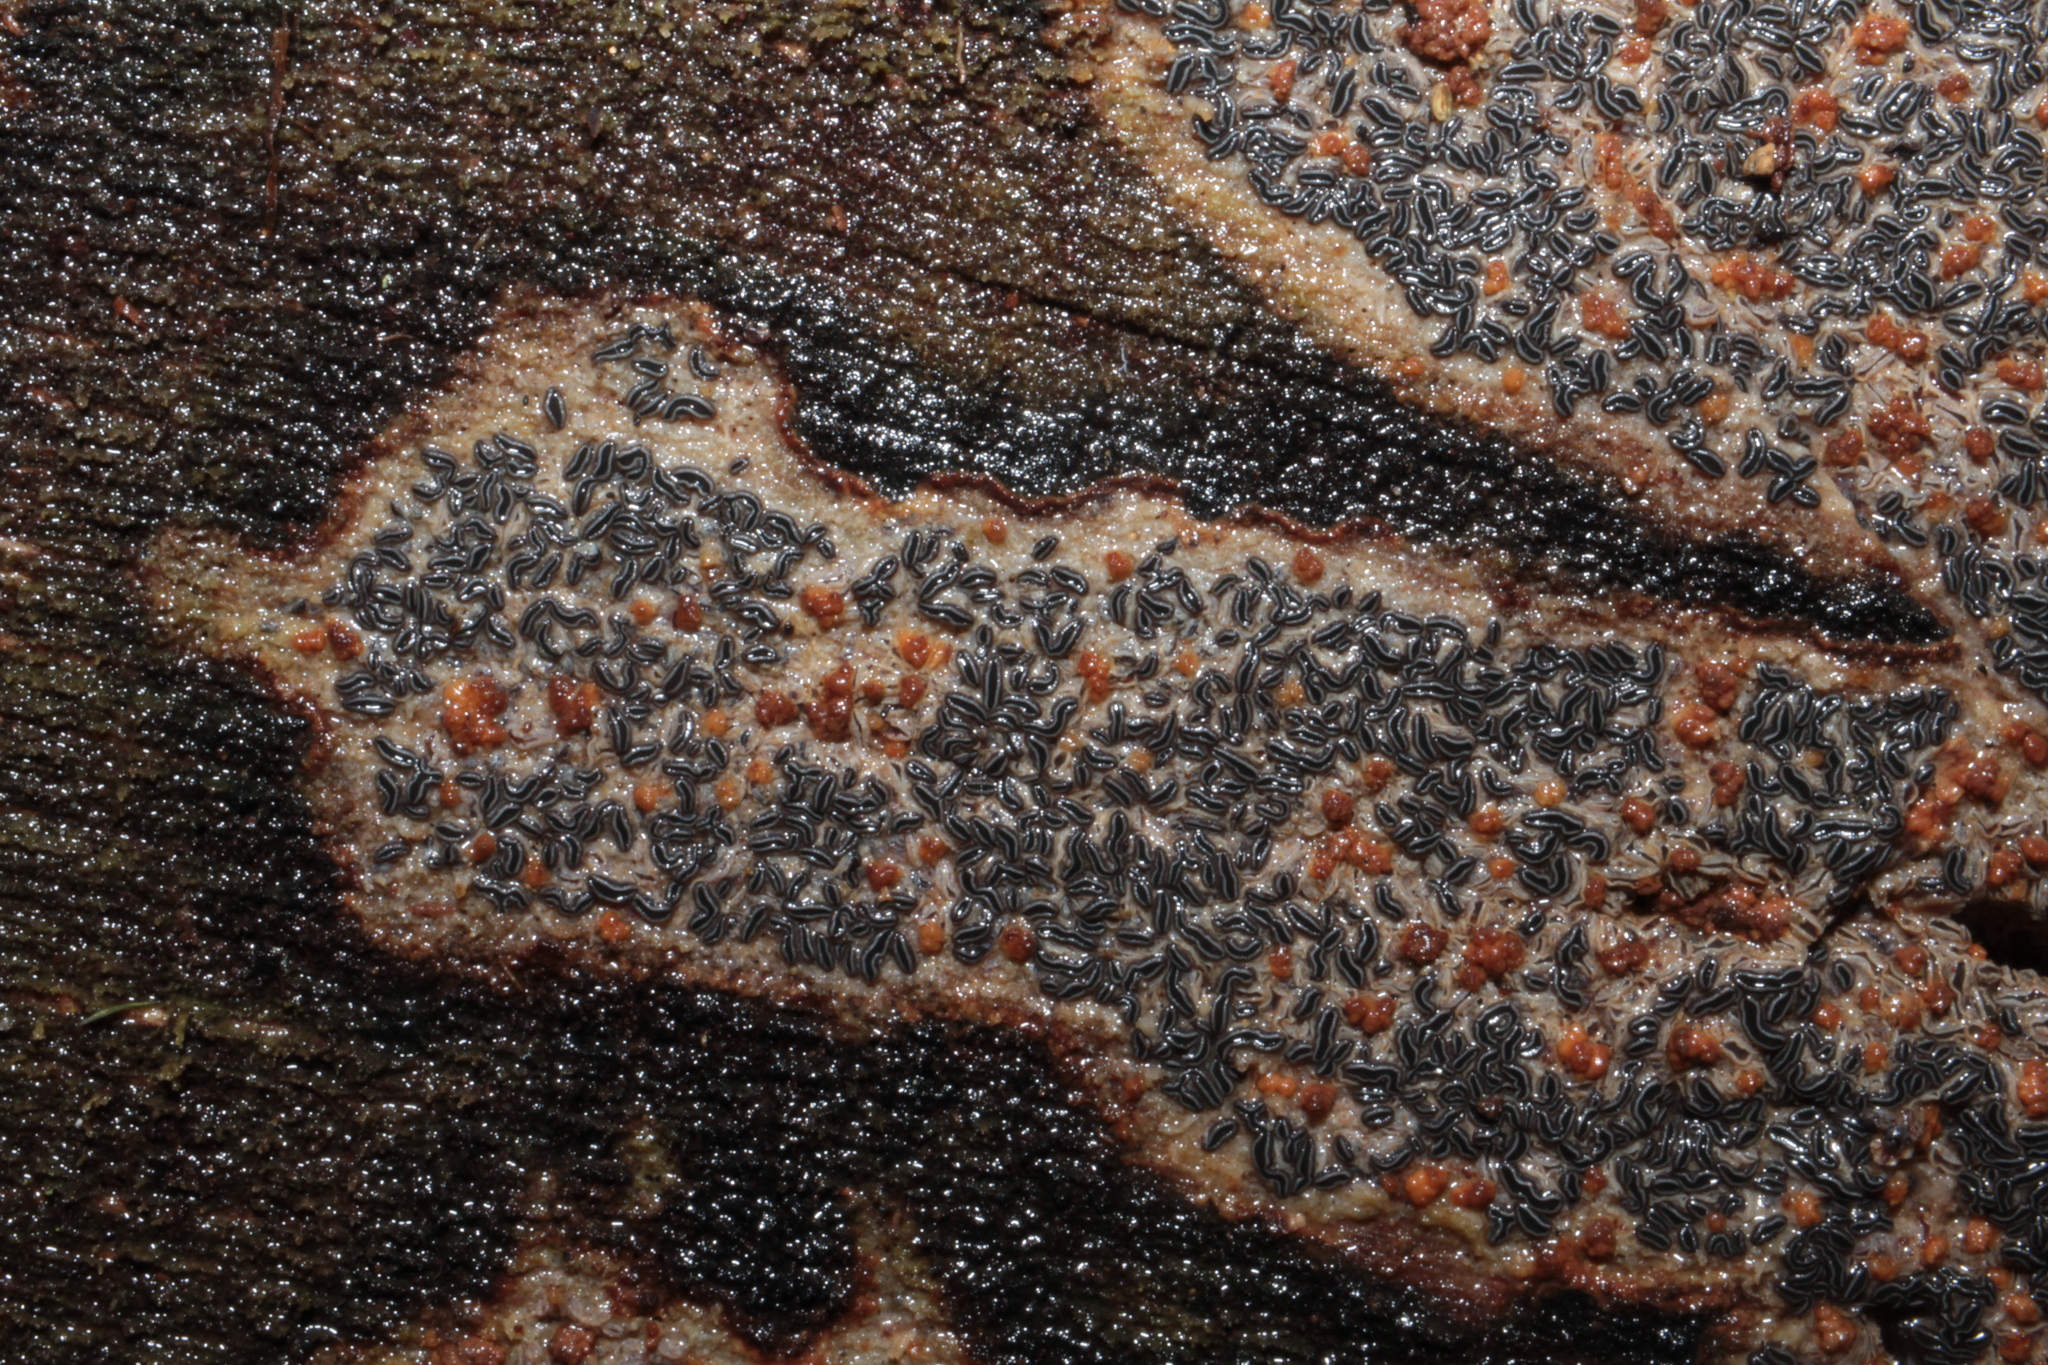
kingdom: Fungi
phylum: Ascomycota
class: Leotiomycetes
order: Helotiales
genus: Angelina
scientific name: Angelina rufescens
